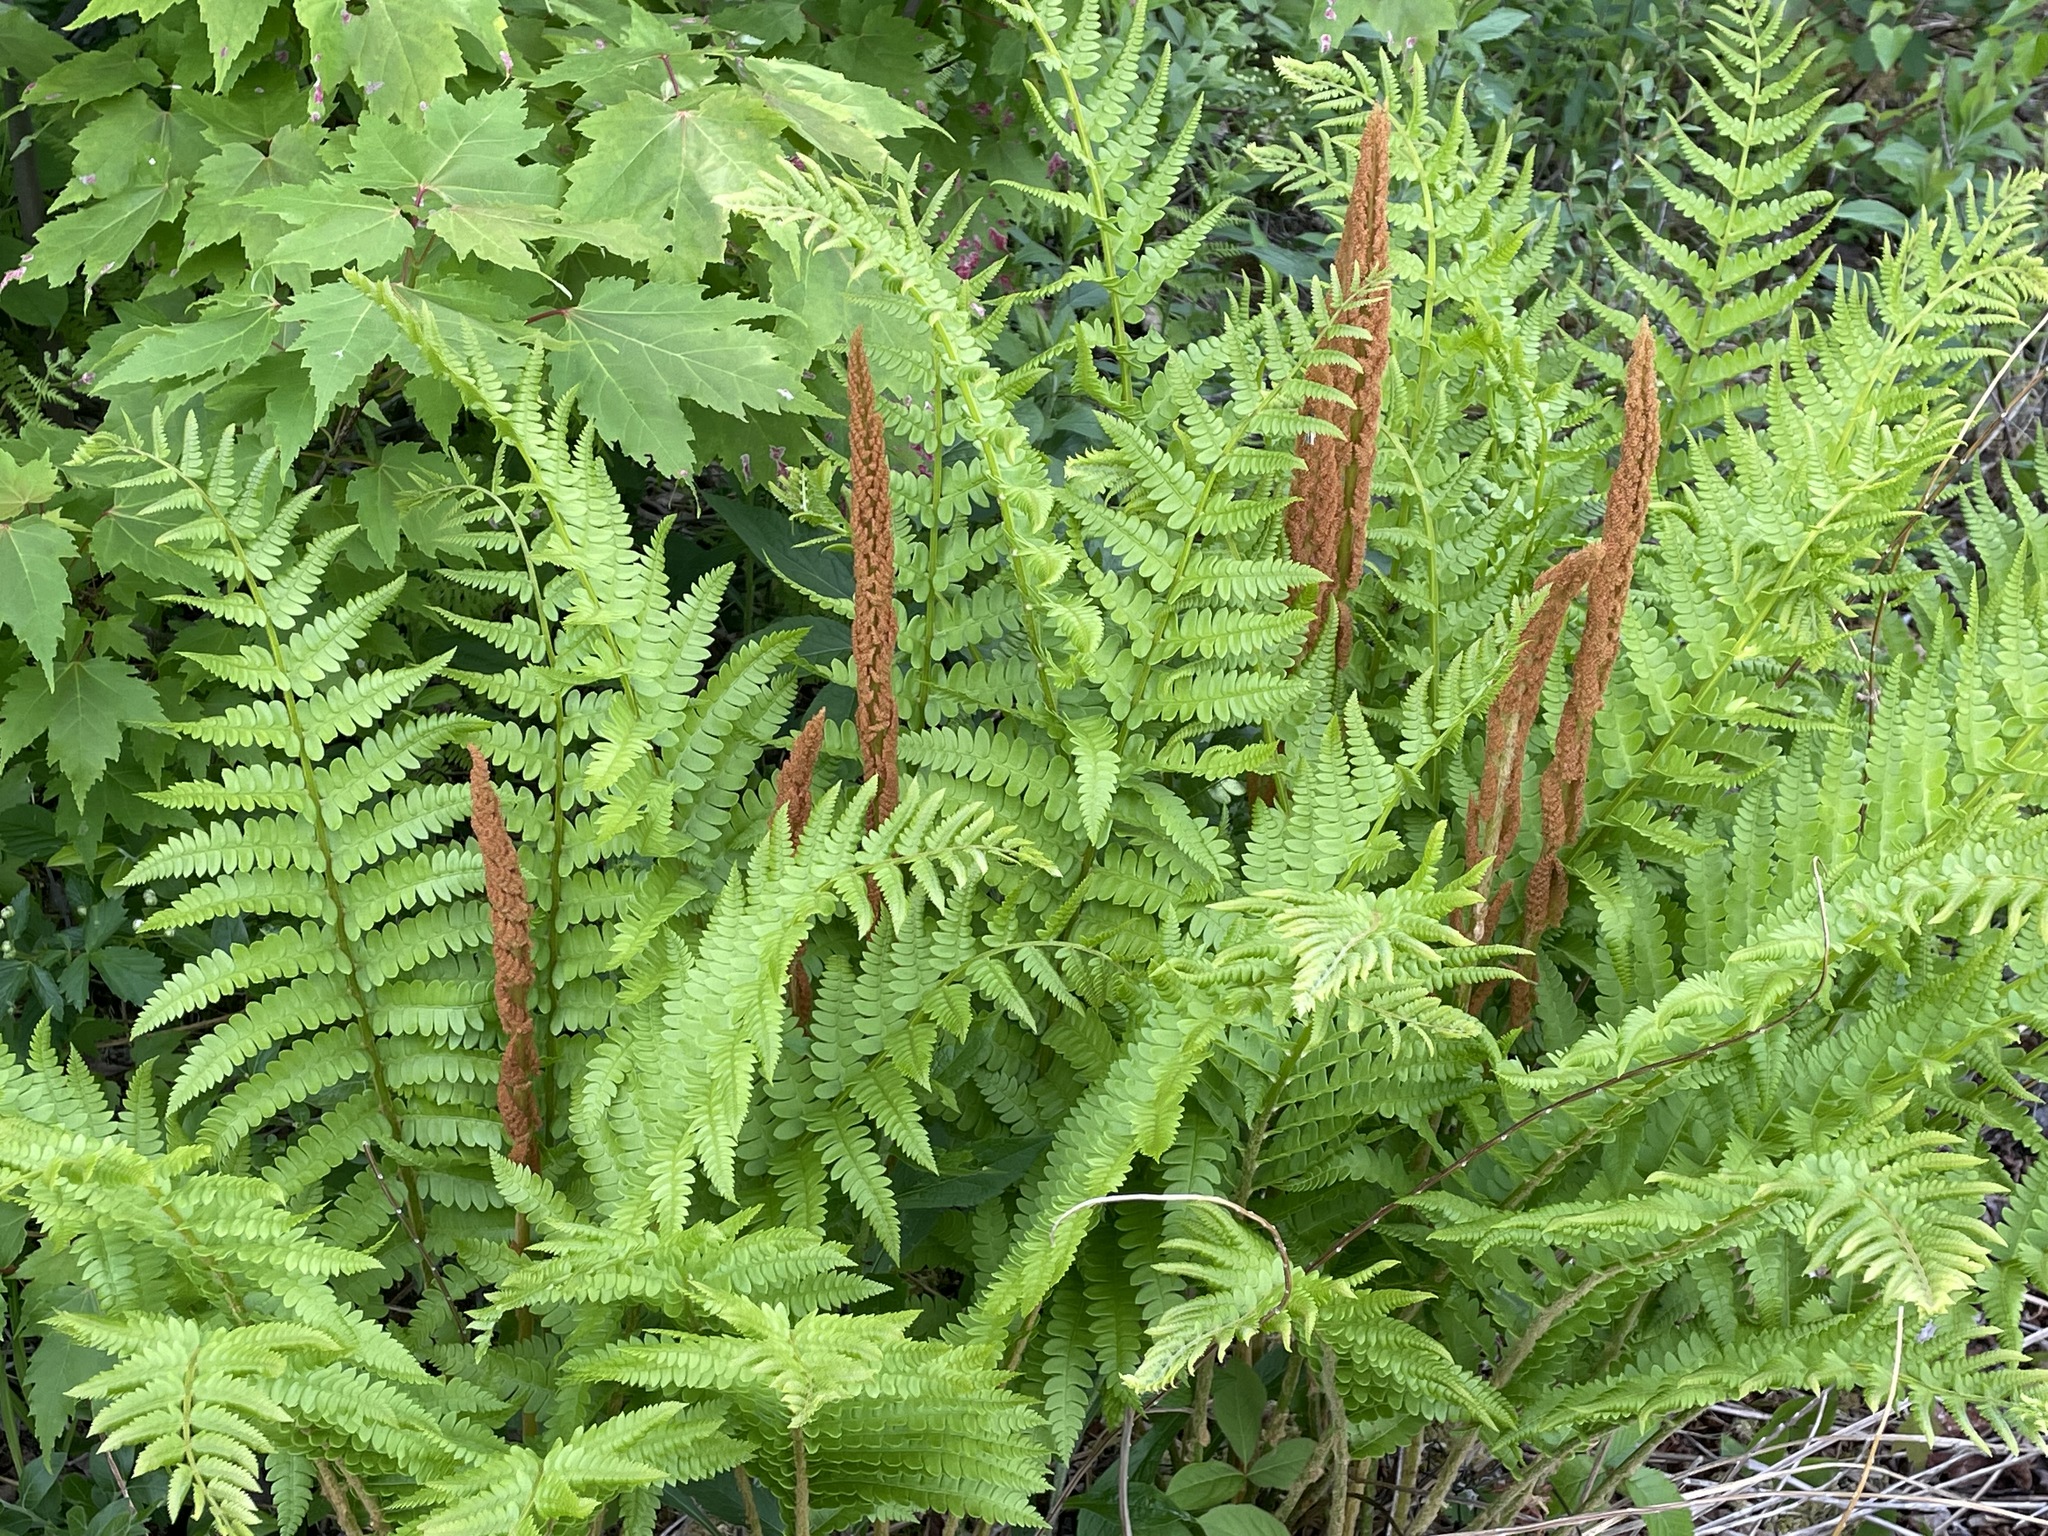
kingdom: Plantae
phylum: Tracheophyta
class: Polypodiopsida
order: Osmundales
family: Osmundaceae
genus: Osmundastrum
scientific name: Osmundastrum cinnamomeum
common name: Cinnamon fern
